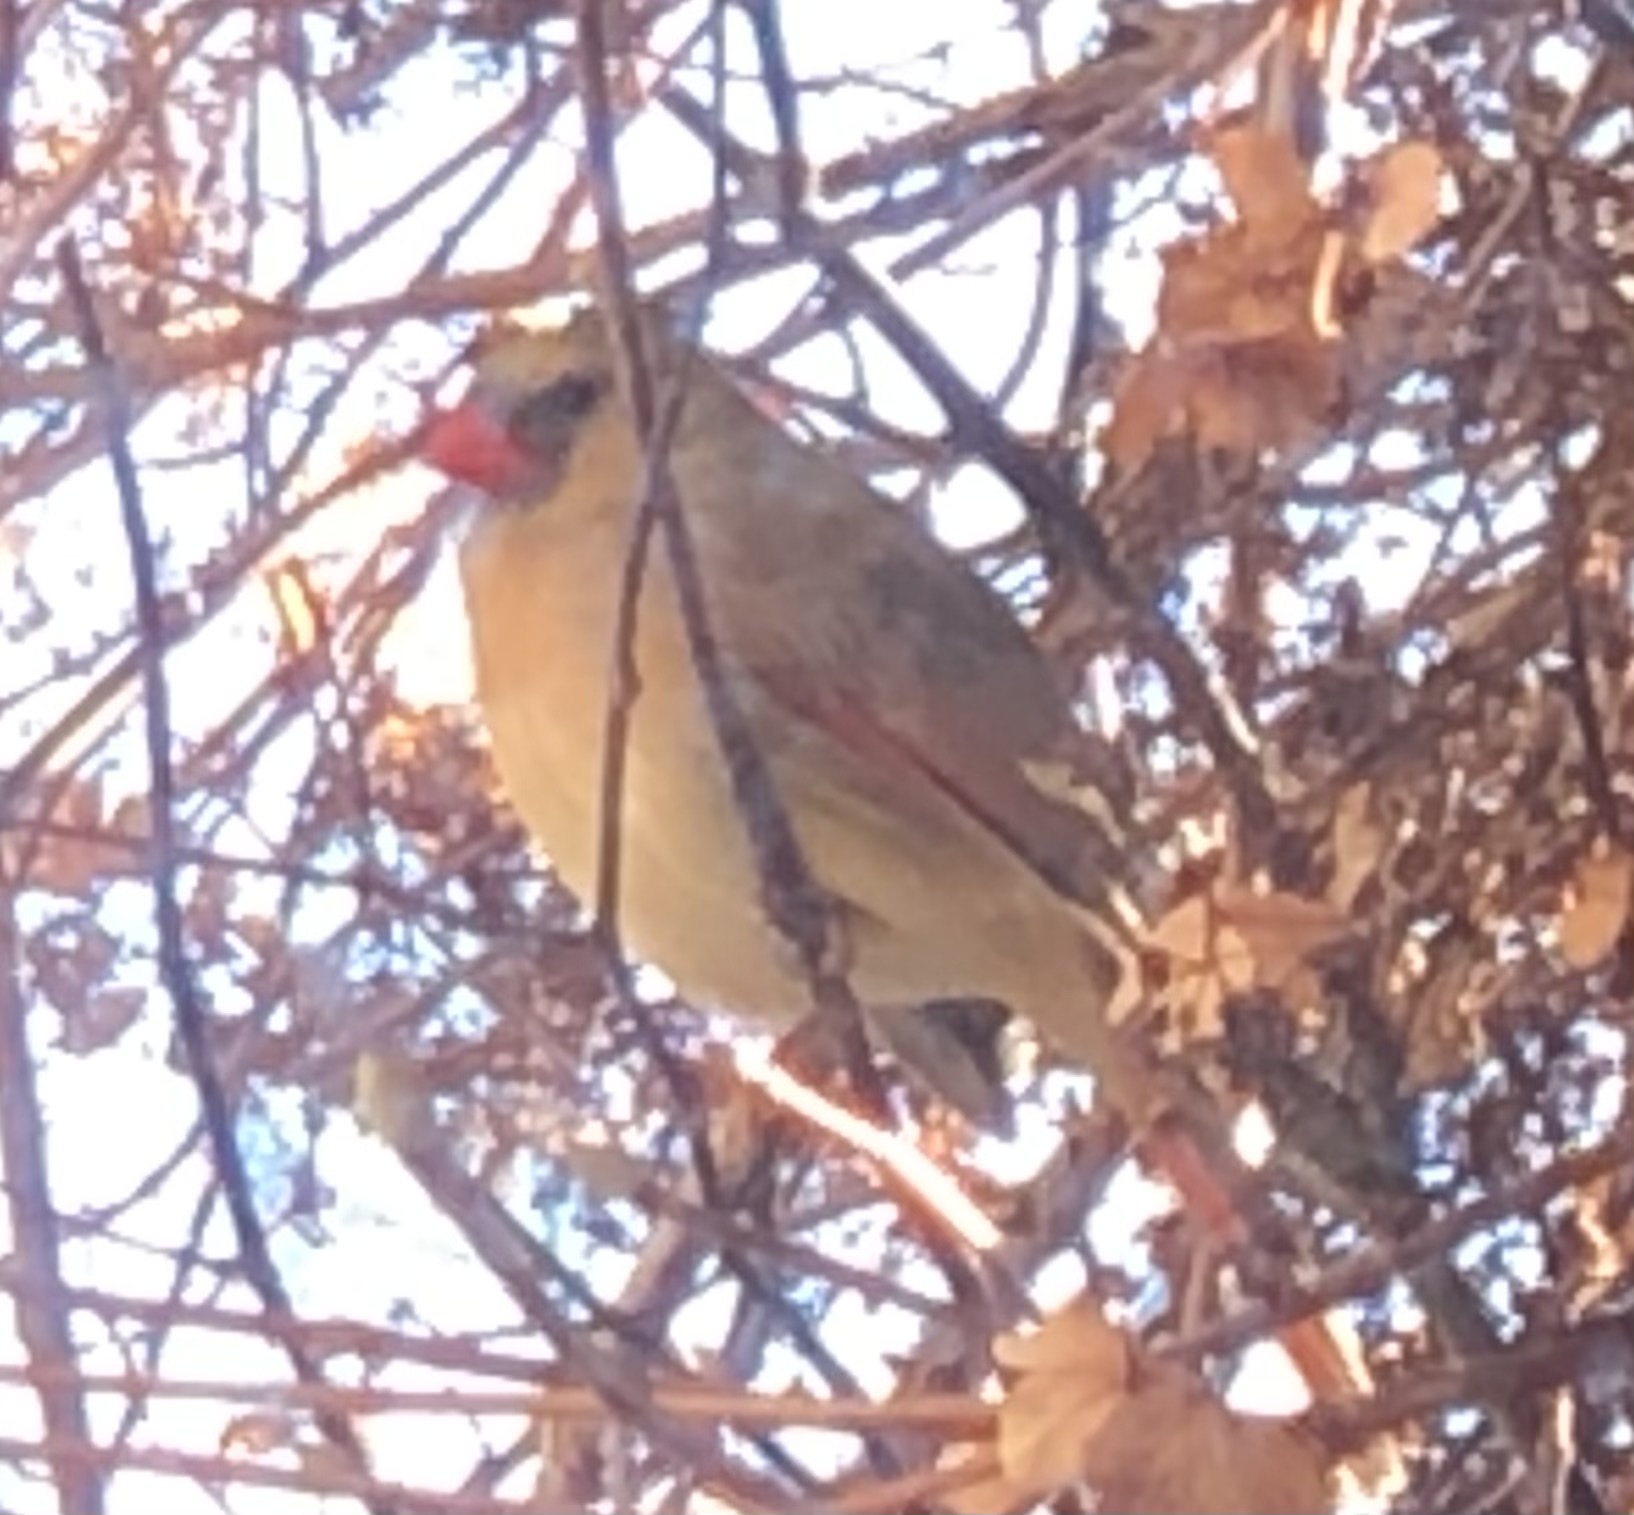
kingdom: Animalia
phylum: Chordata
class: Aves
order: Passeriformes
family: Cardinalidae
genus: Cardinalis
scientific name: Cardinalis cardinalis
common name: Northern cardinal
